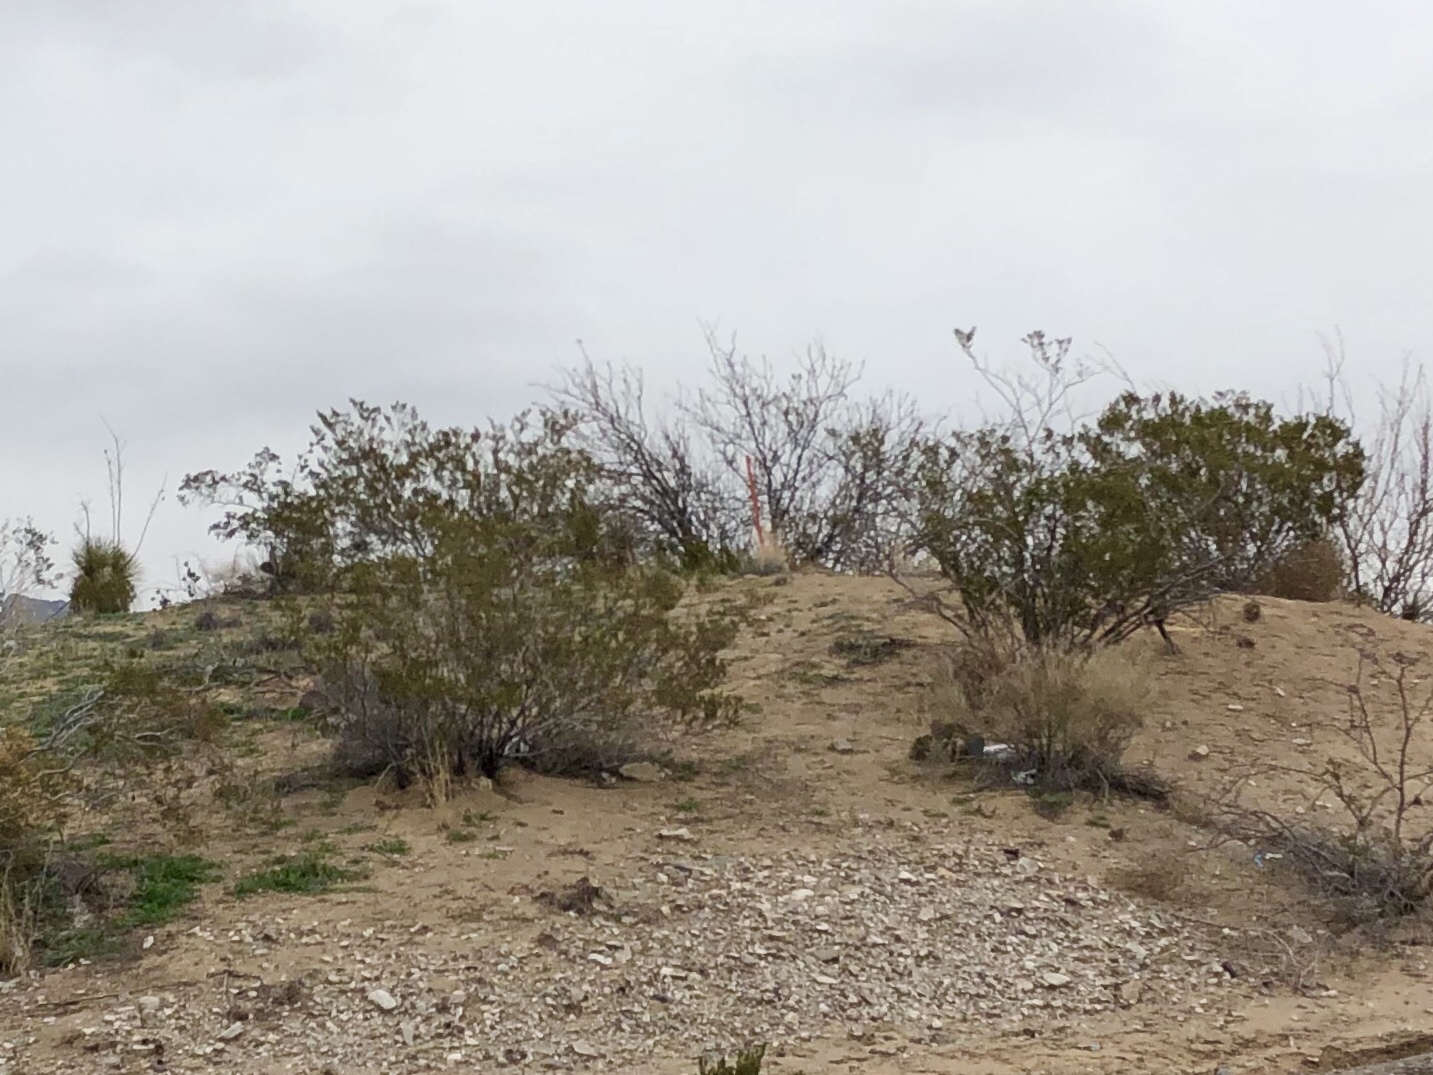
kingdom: Plantae
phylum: Tracheophyta
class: Magnoliopsida
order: Zygophyllales
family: Zygophyllaceae
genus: Larrea
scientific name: Larrea tridentata
